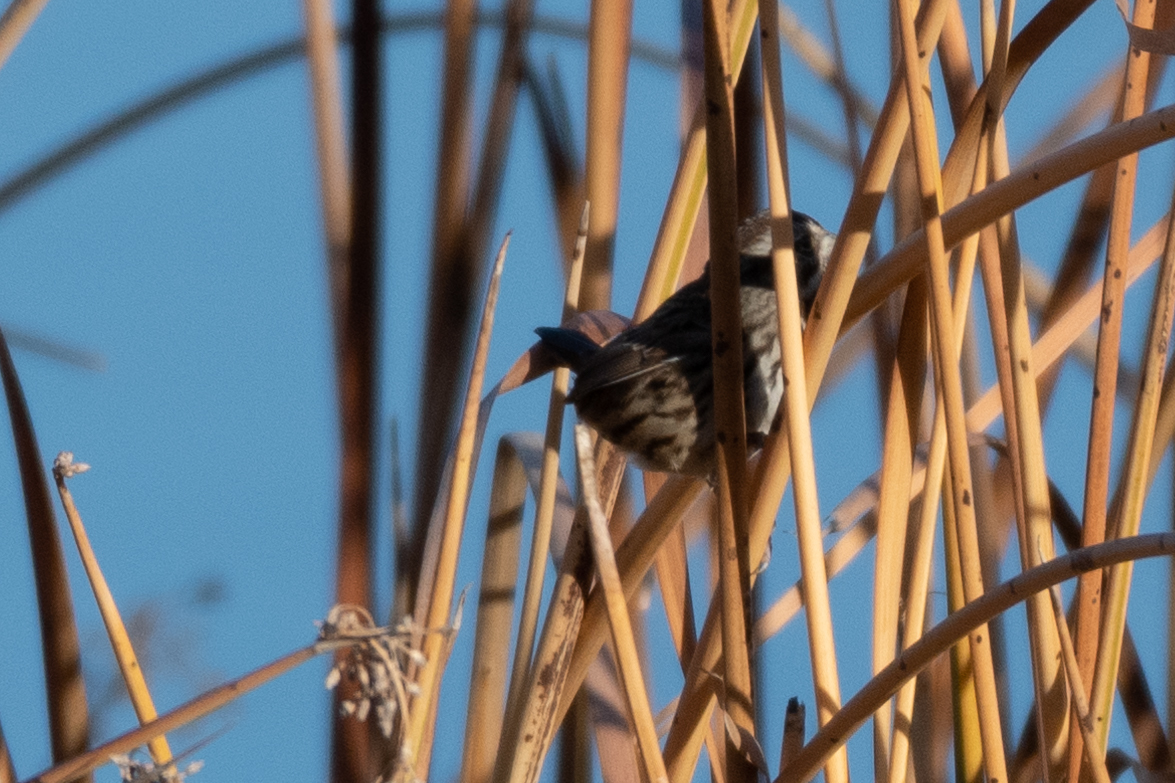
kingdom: Animalia
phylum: Chordata
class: Aves
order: Passeriformes
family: Passerellidae
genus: Melospiza
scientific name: Melospiza melodia
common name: Song sparrow
